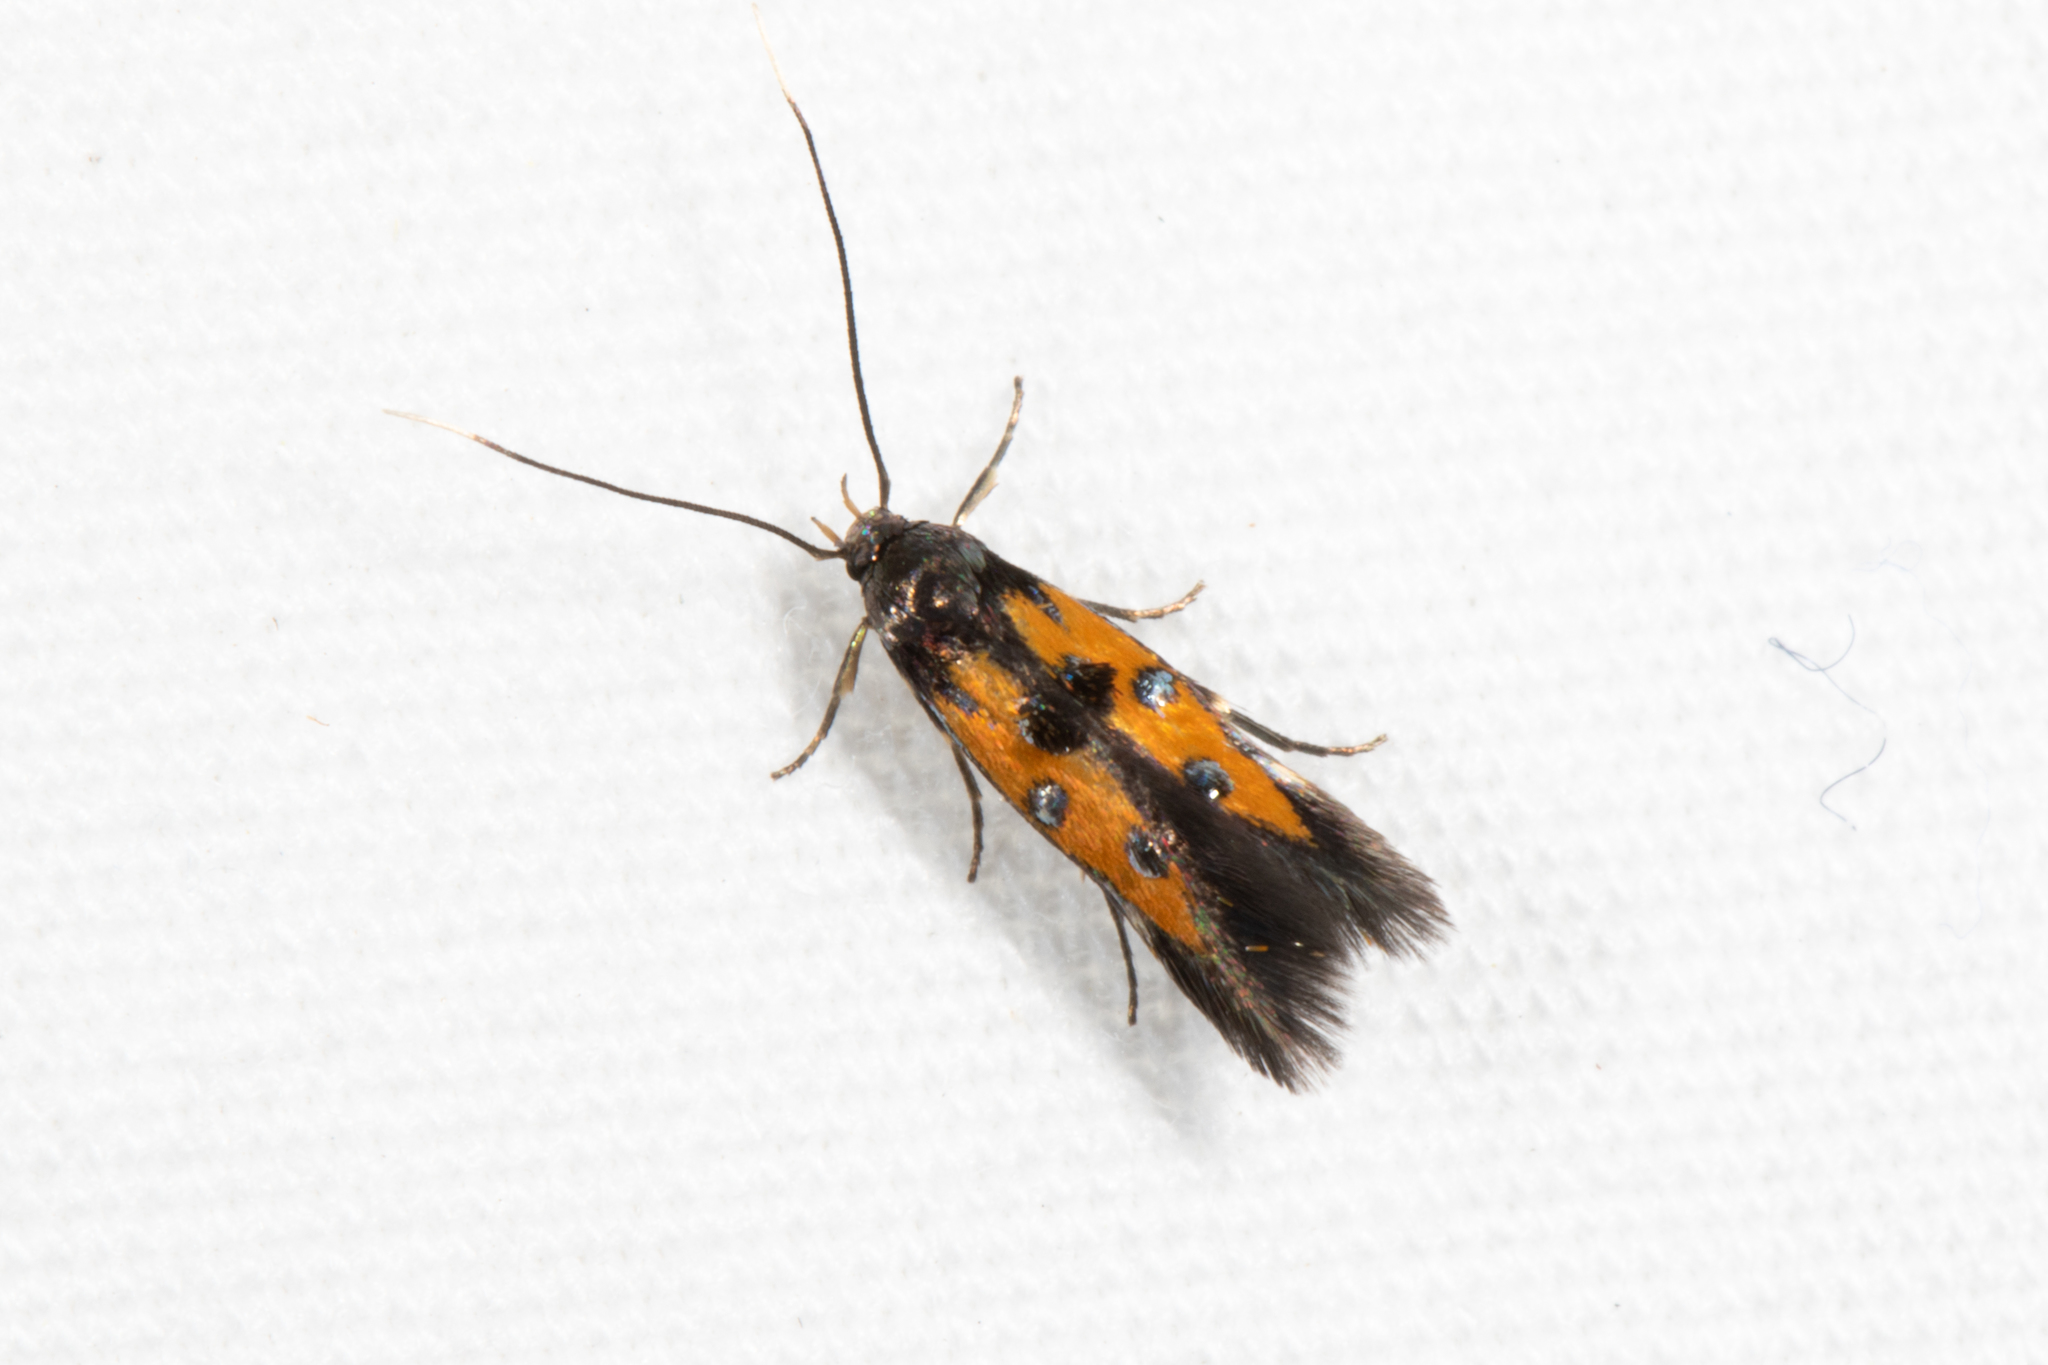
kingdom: Animalia
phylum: Arthropoda
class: Insecta
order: Lepidoptera
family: Elachistidae
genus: Chrysoclista
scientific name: Chrysoclista linneela
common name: Lime cosmet
